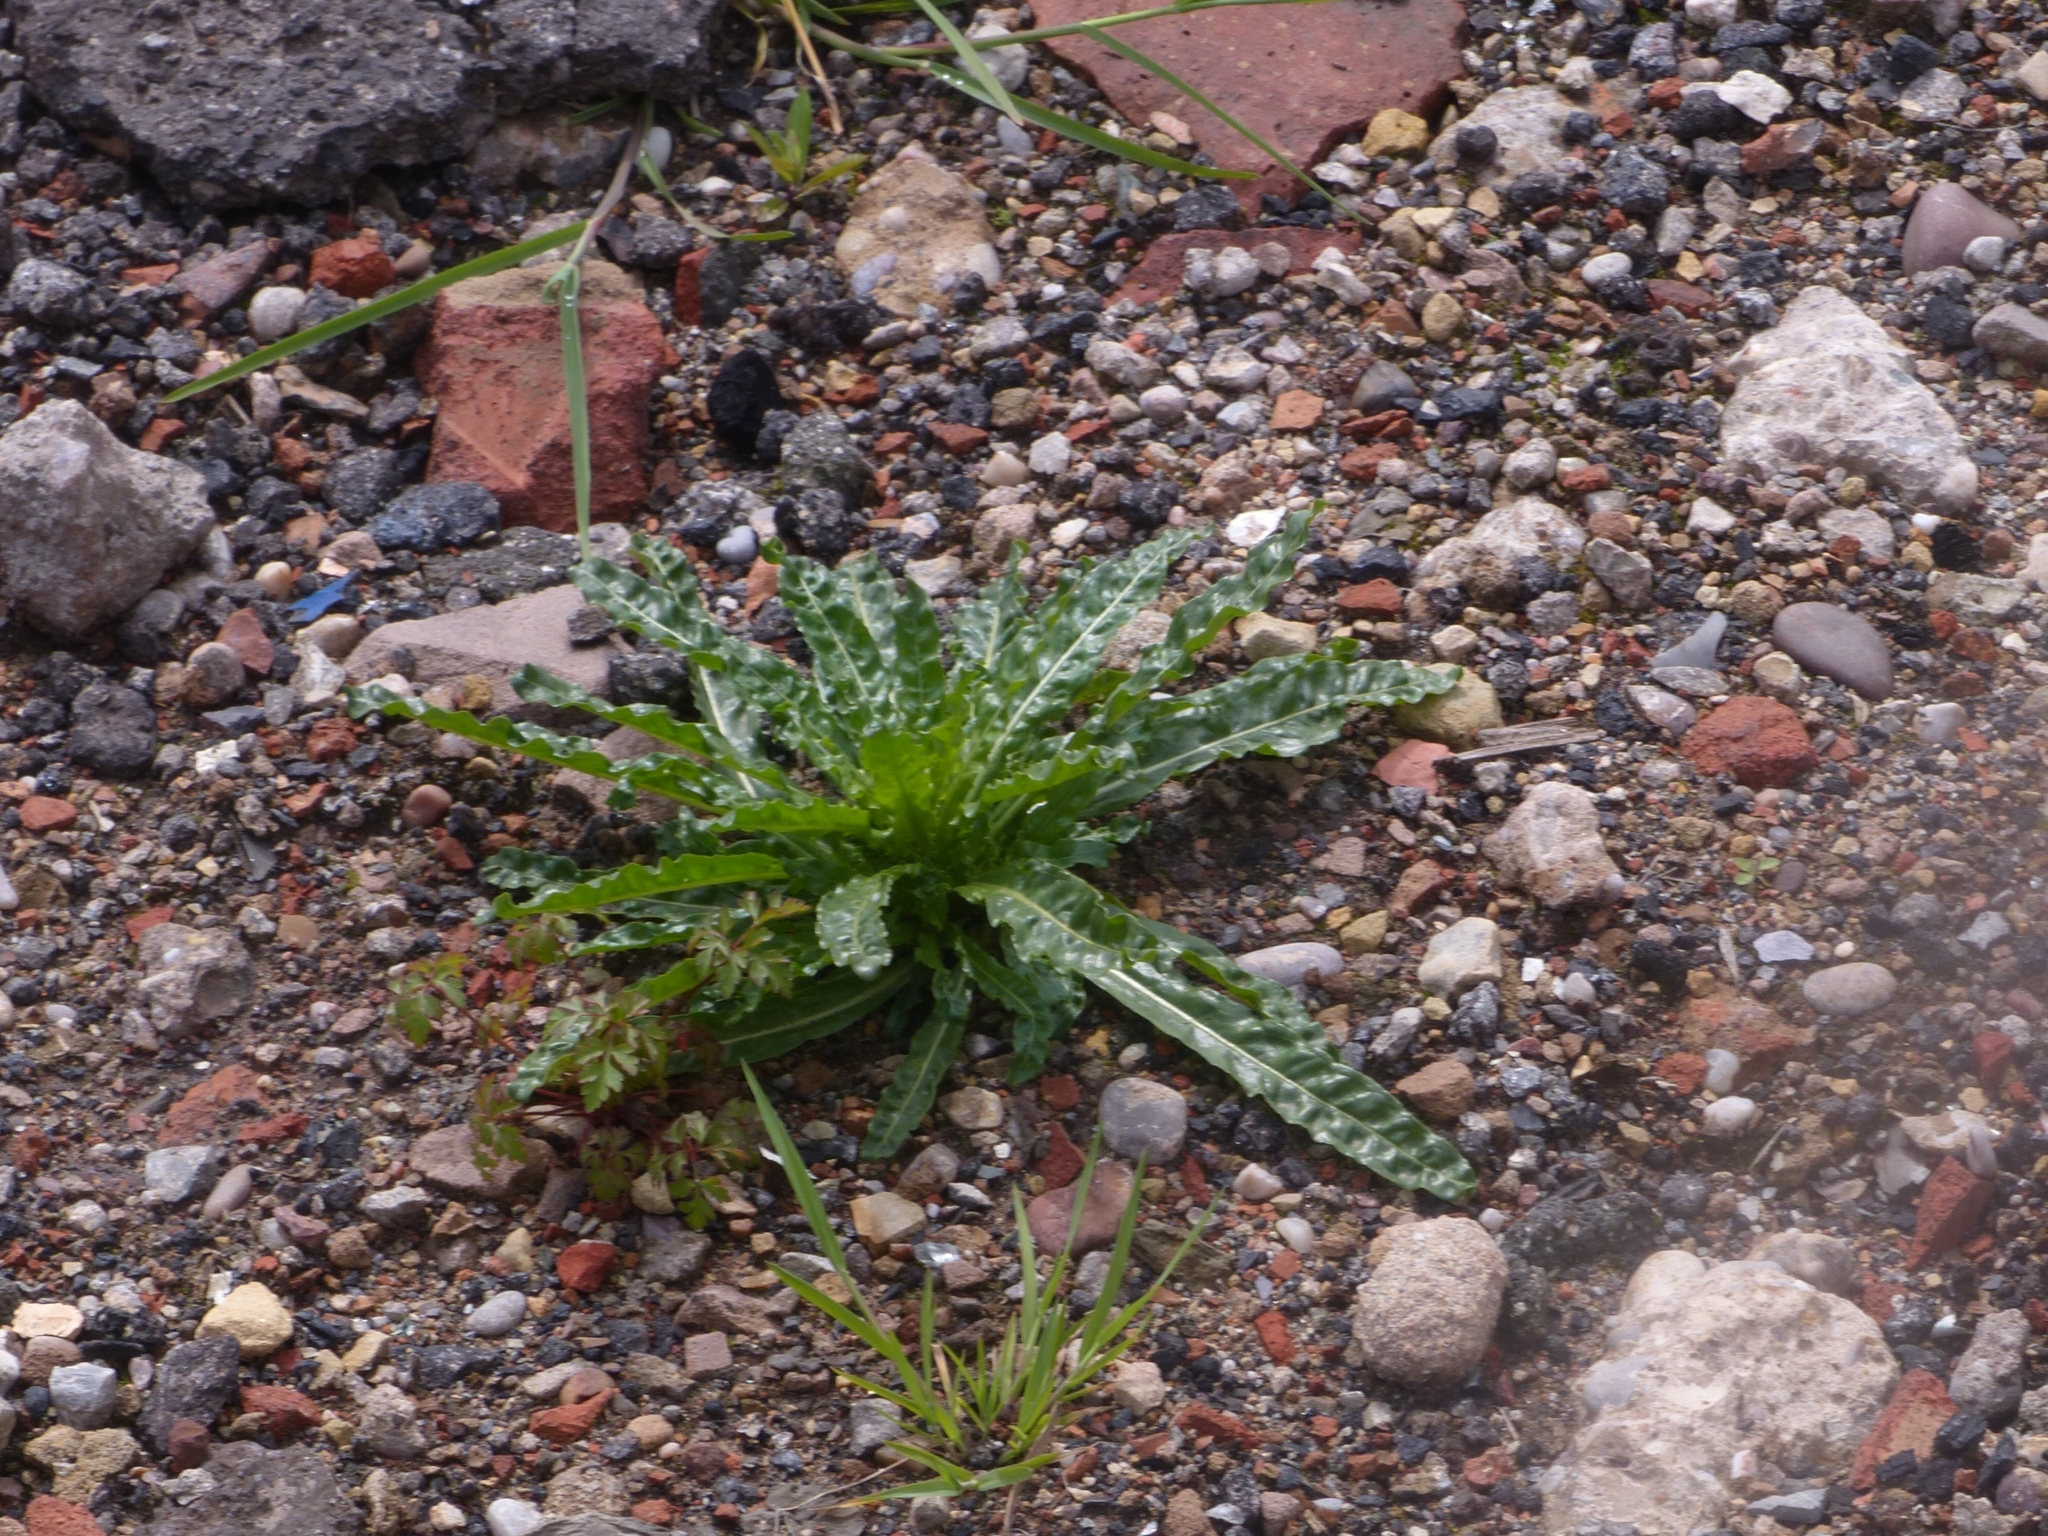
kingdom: Plantae
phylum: Tracheophyta
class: Magnoliopsida
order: Brassicales
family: Resedaceae
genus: Reseda
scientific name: Reseda luteola
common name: Weld
